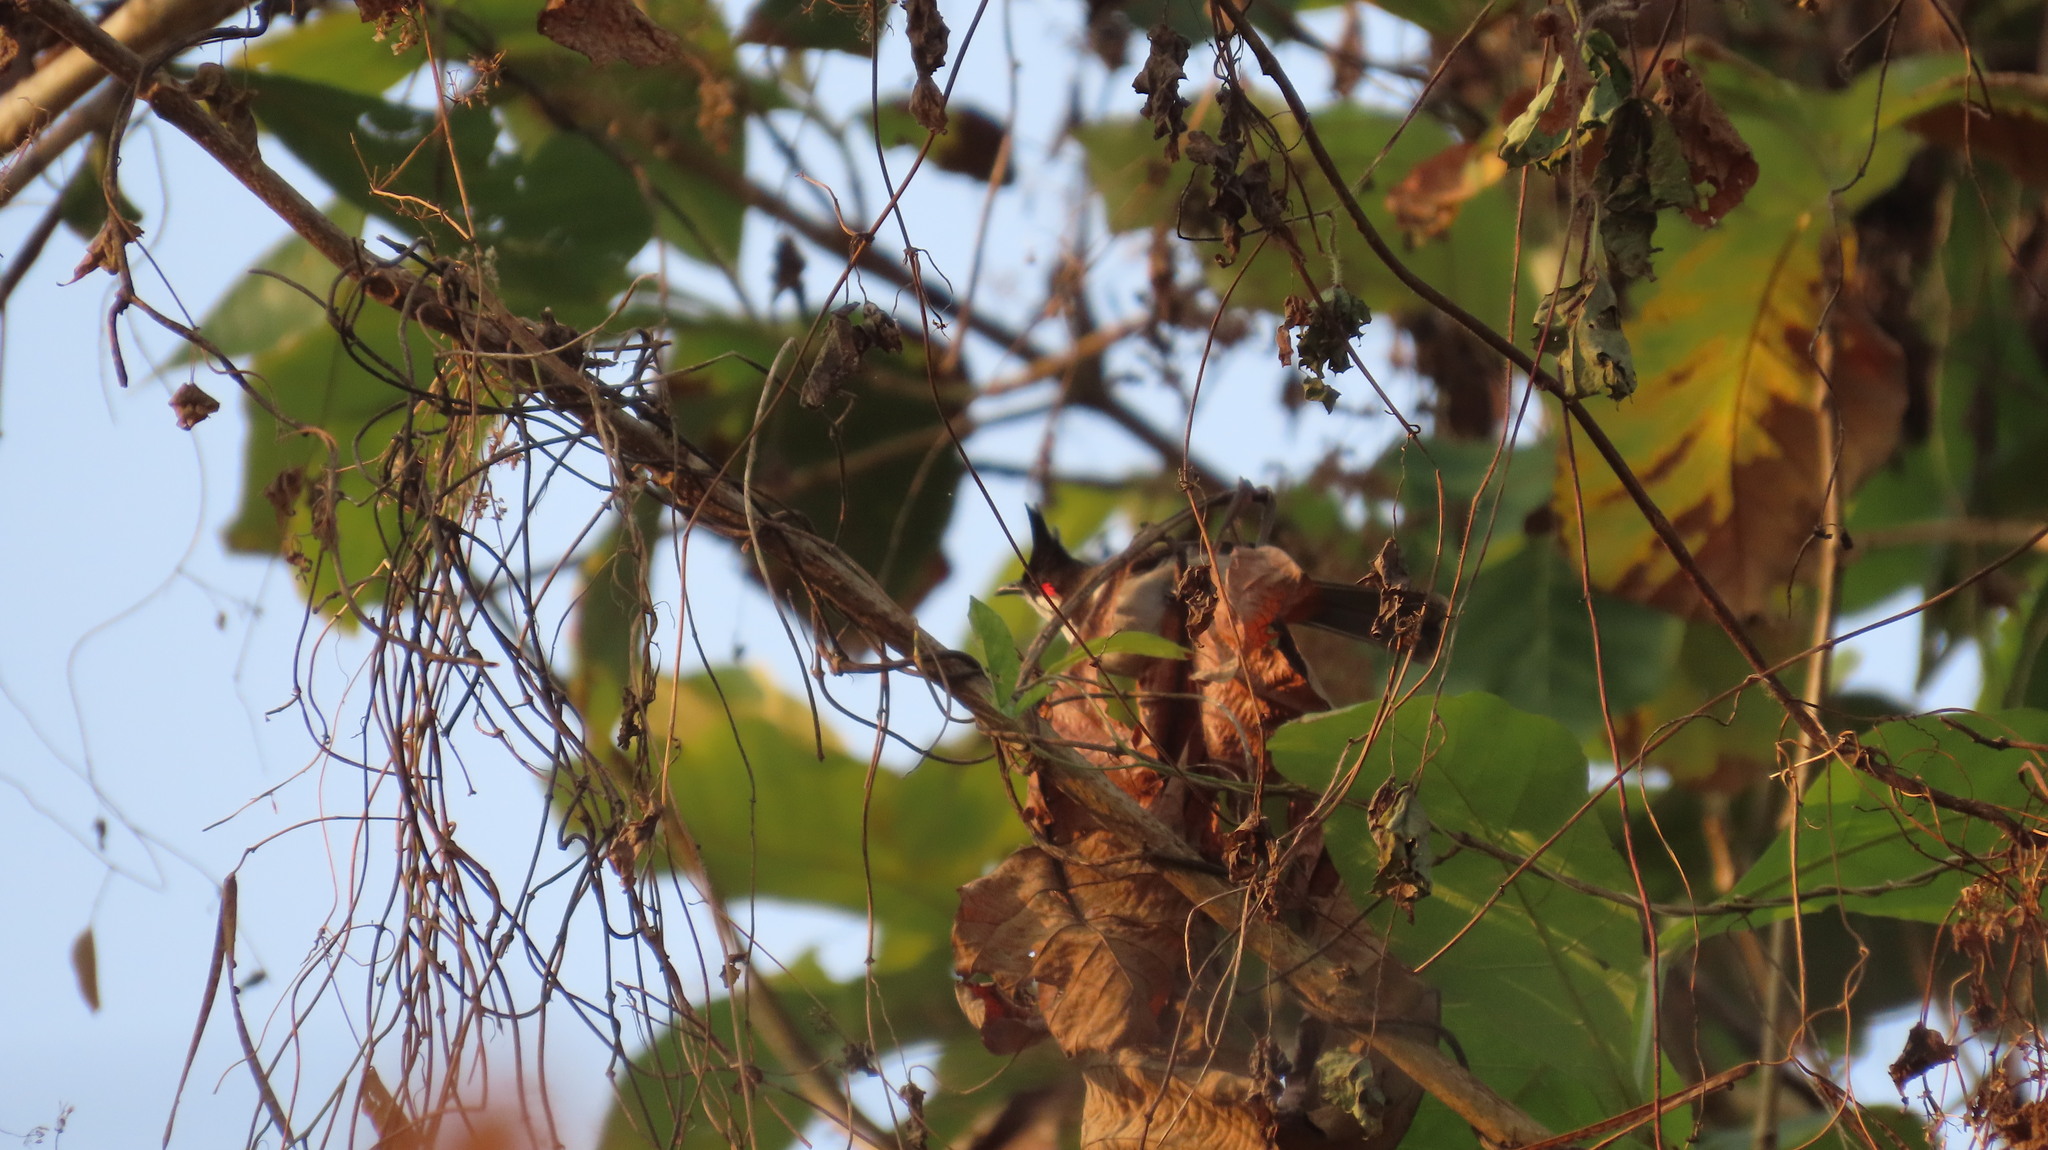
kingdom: Animalia
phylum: Chordata
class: Aves
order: Passeriformes
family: Pycnonotidae
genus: Pycnonotus
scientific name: Pycnonotus jocosus
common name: Red-whiskered bulbul
